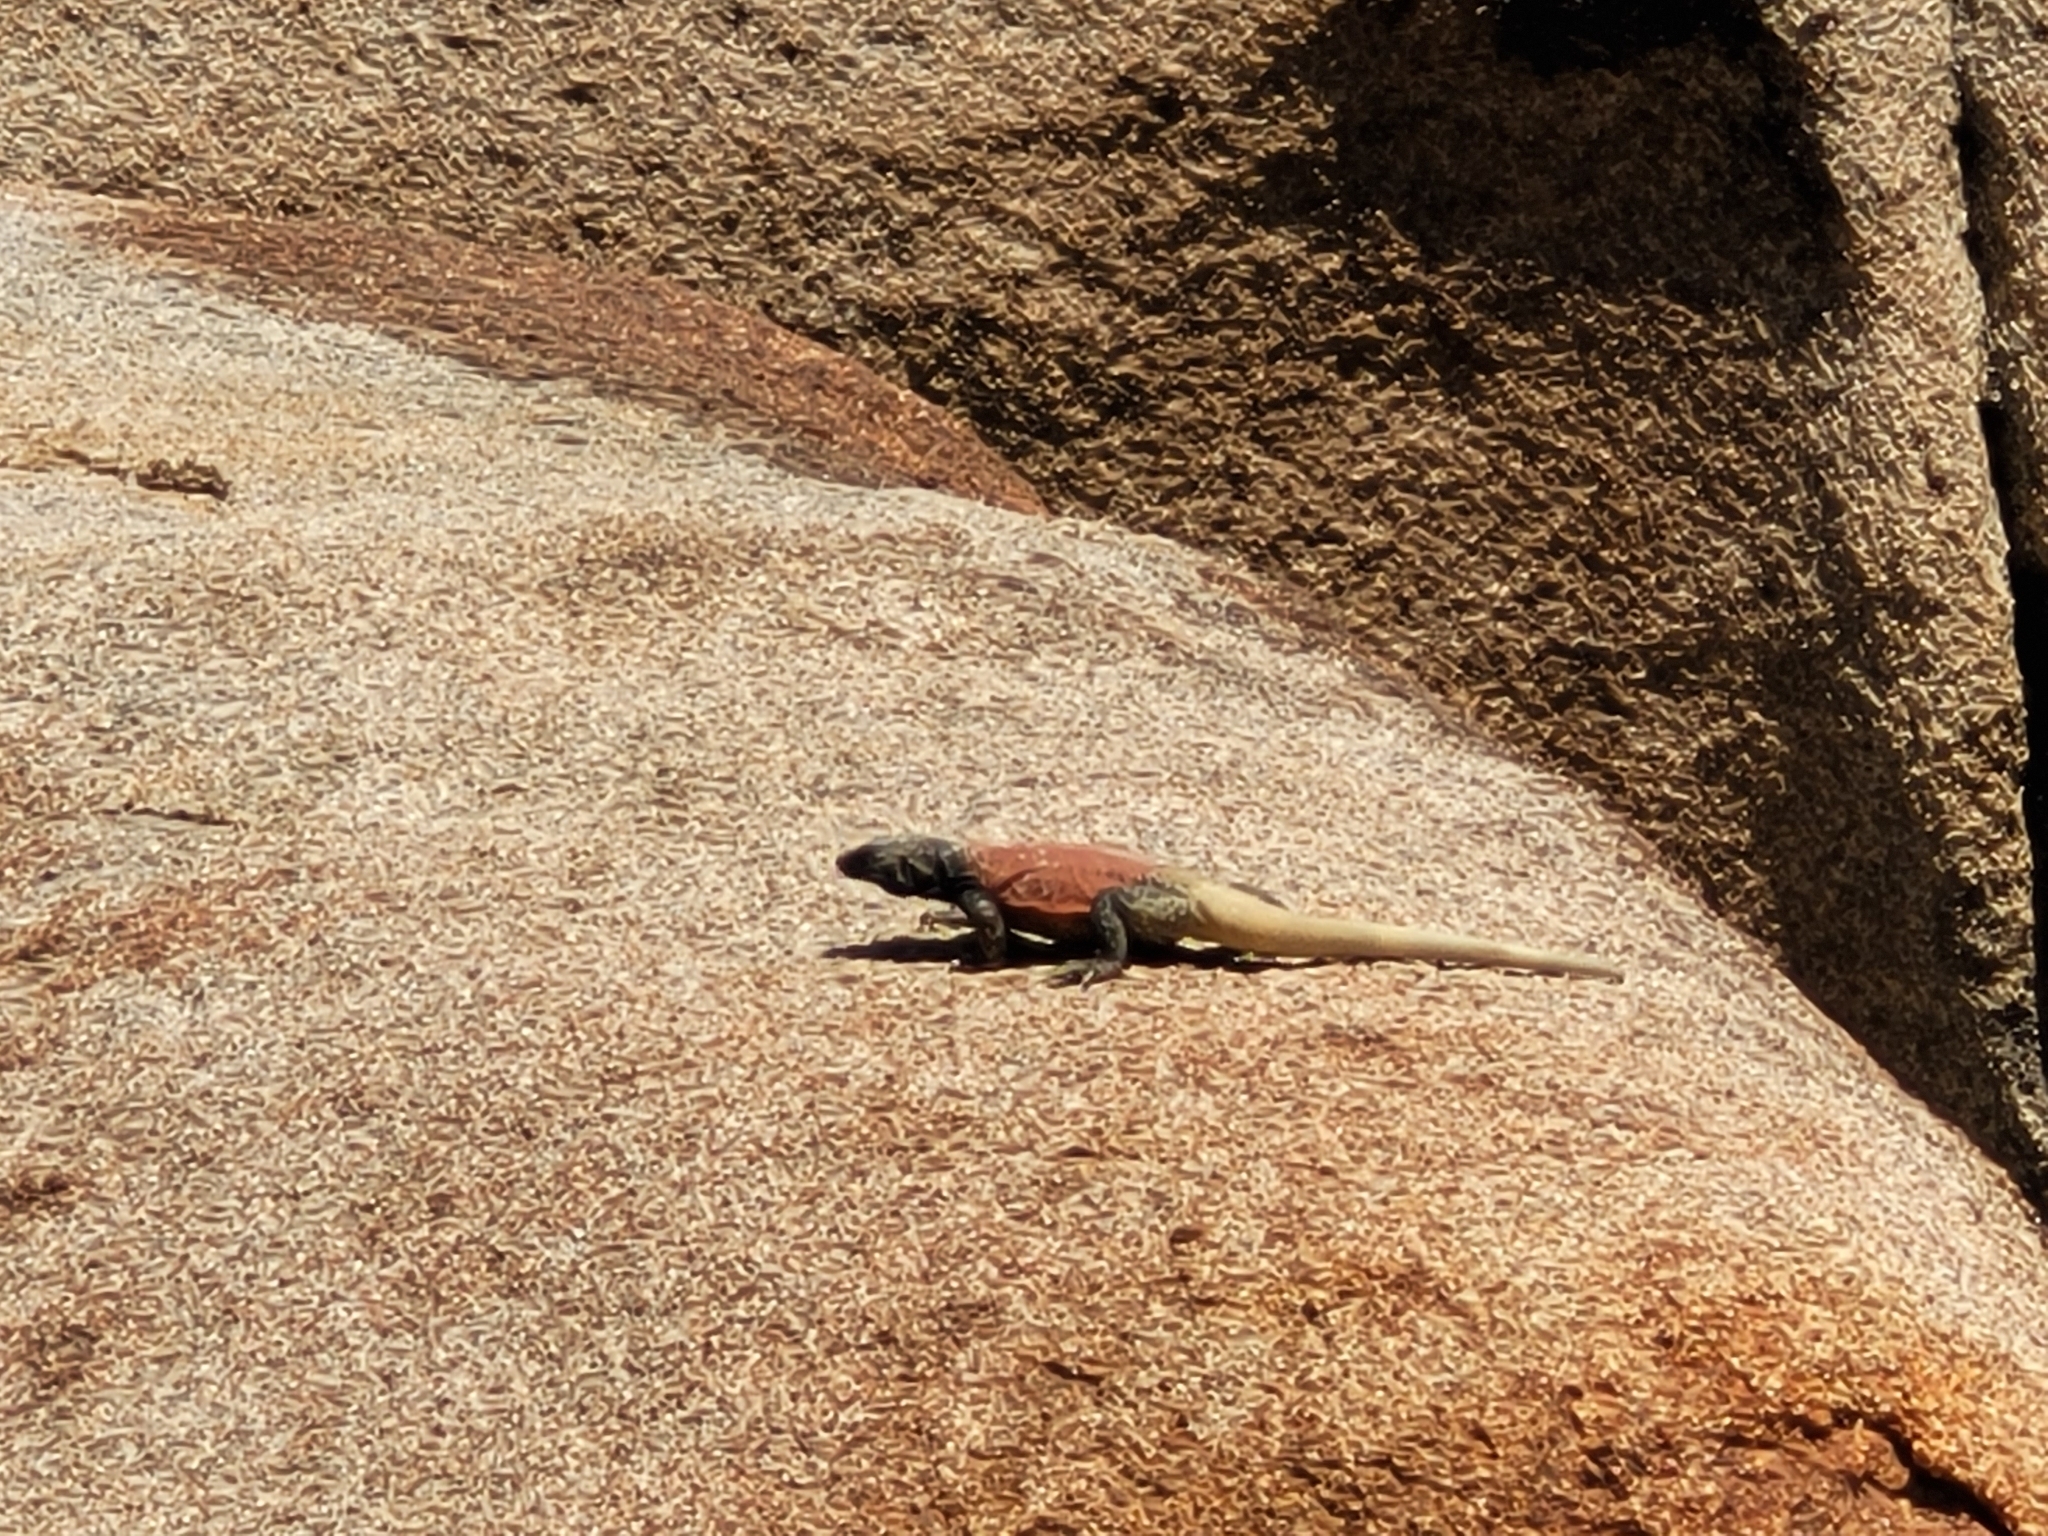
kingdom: Animalia
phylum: Chordata
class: Squamata
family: Iguanidae
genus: Sauromalus
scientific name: Sauromalus ater
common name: Northern chuckwalla
